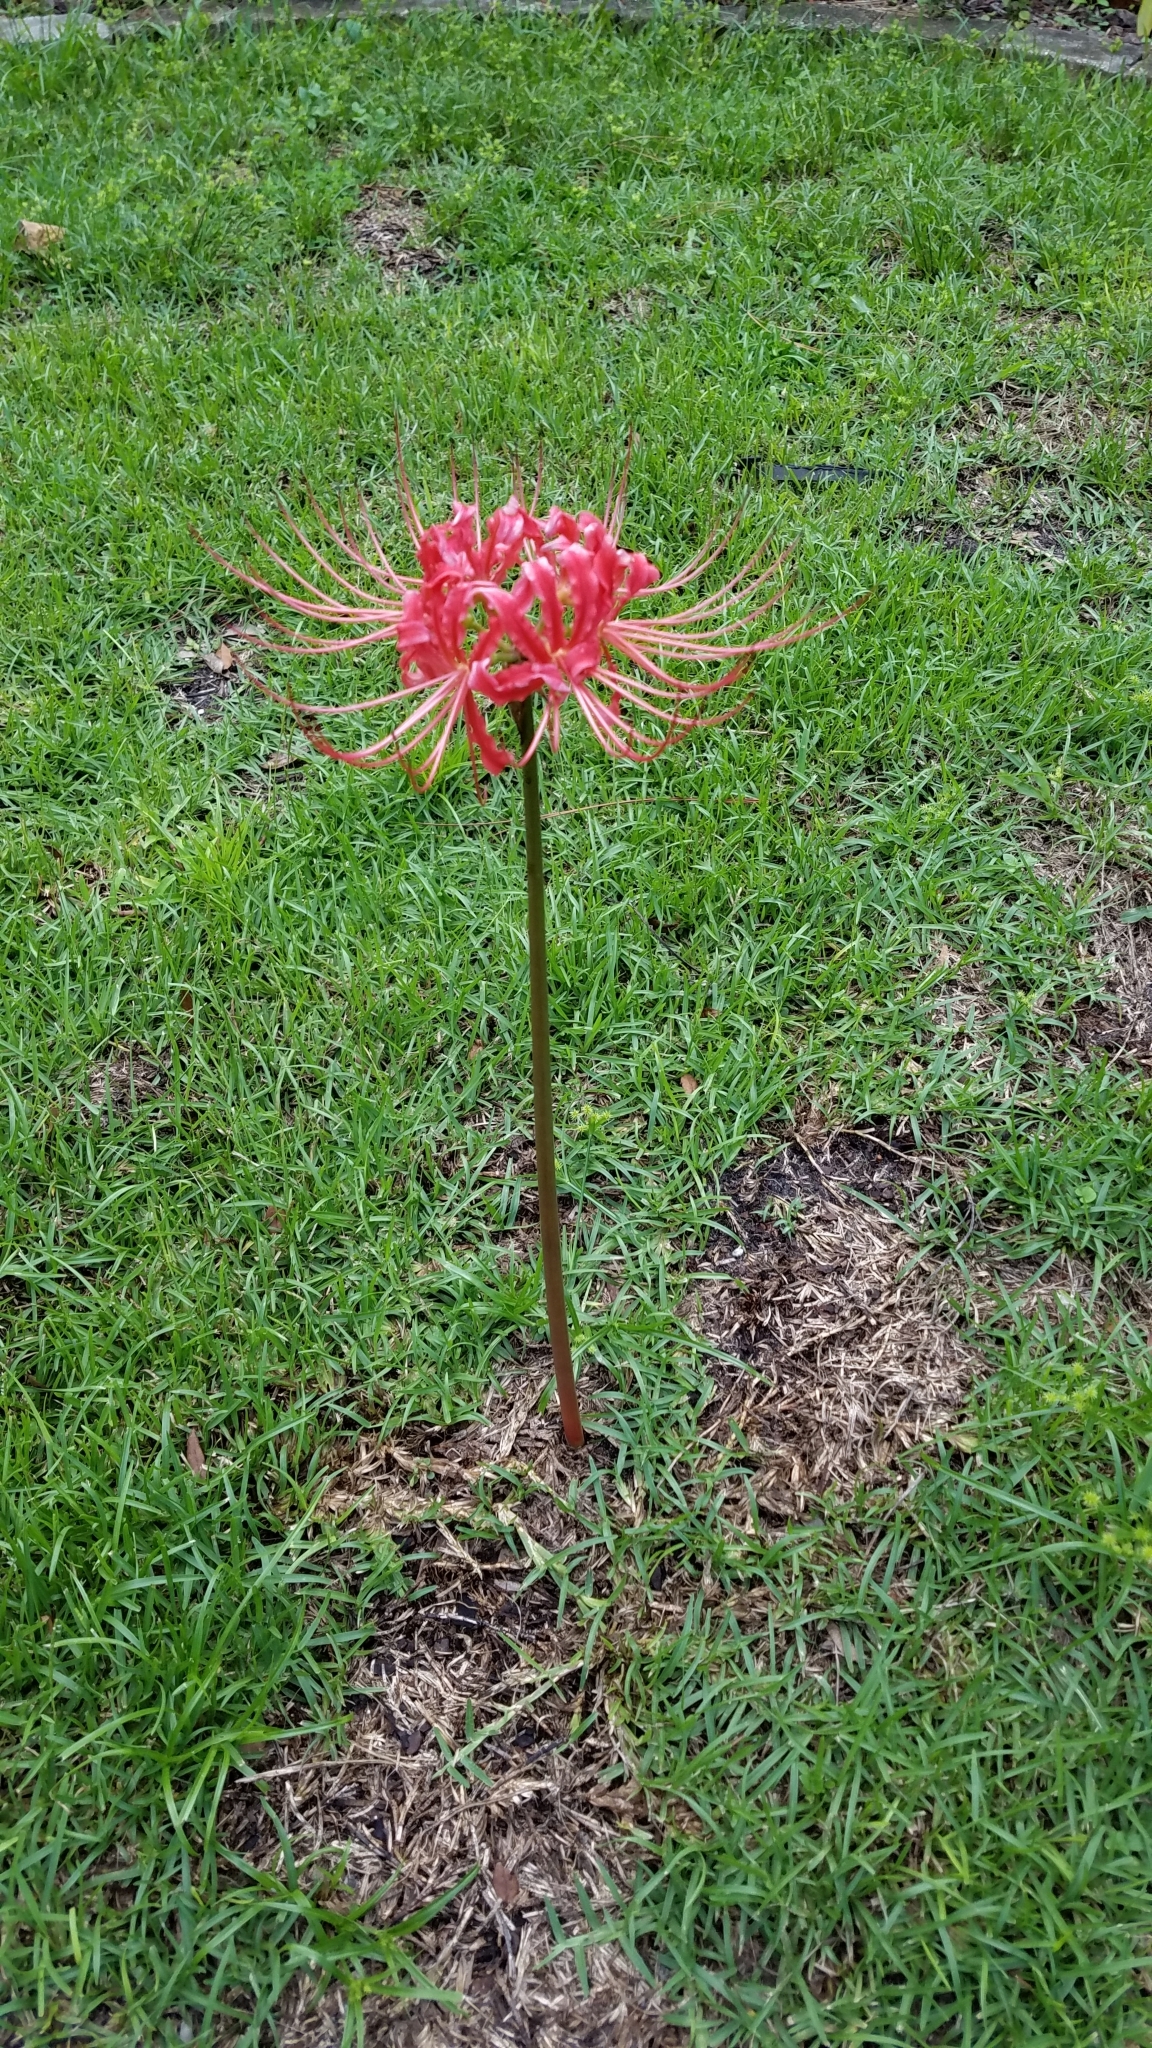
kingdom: Plantae
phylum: Tracheophyta
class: Liliopsida
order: Asparagales
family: Amaryllidaceae
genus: Lycoris
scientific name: Lycoris radiata
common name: Red spider lily
